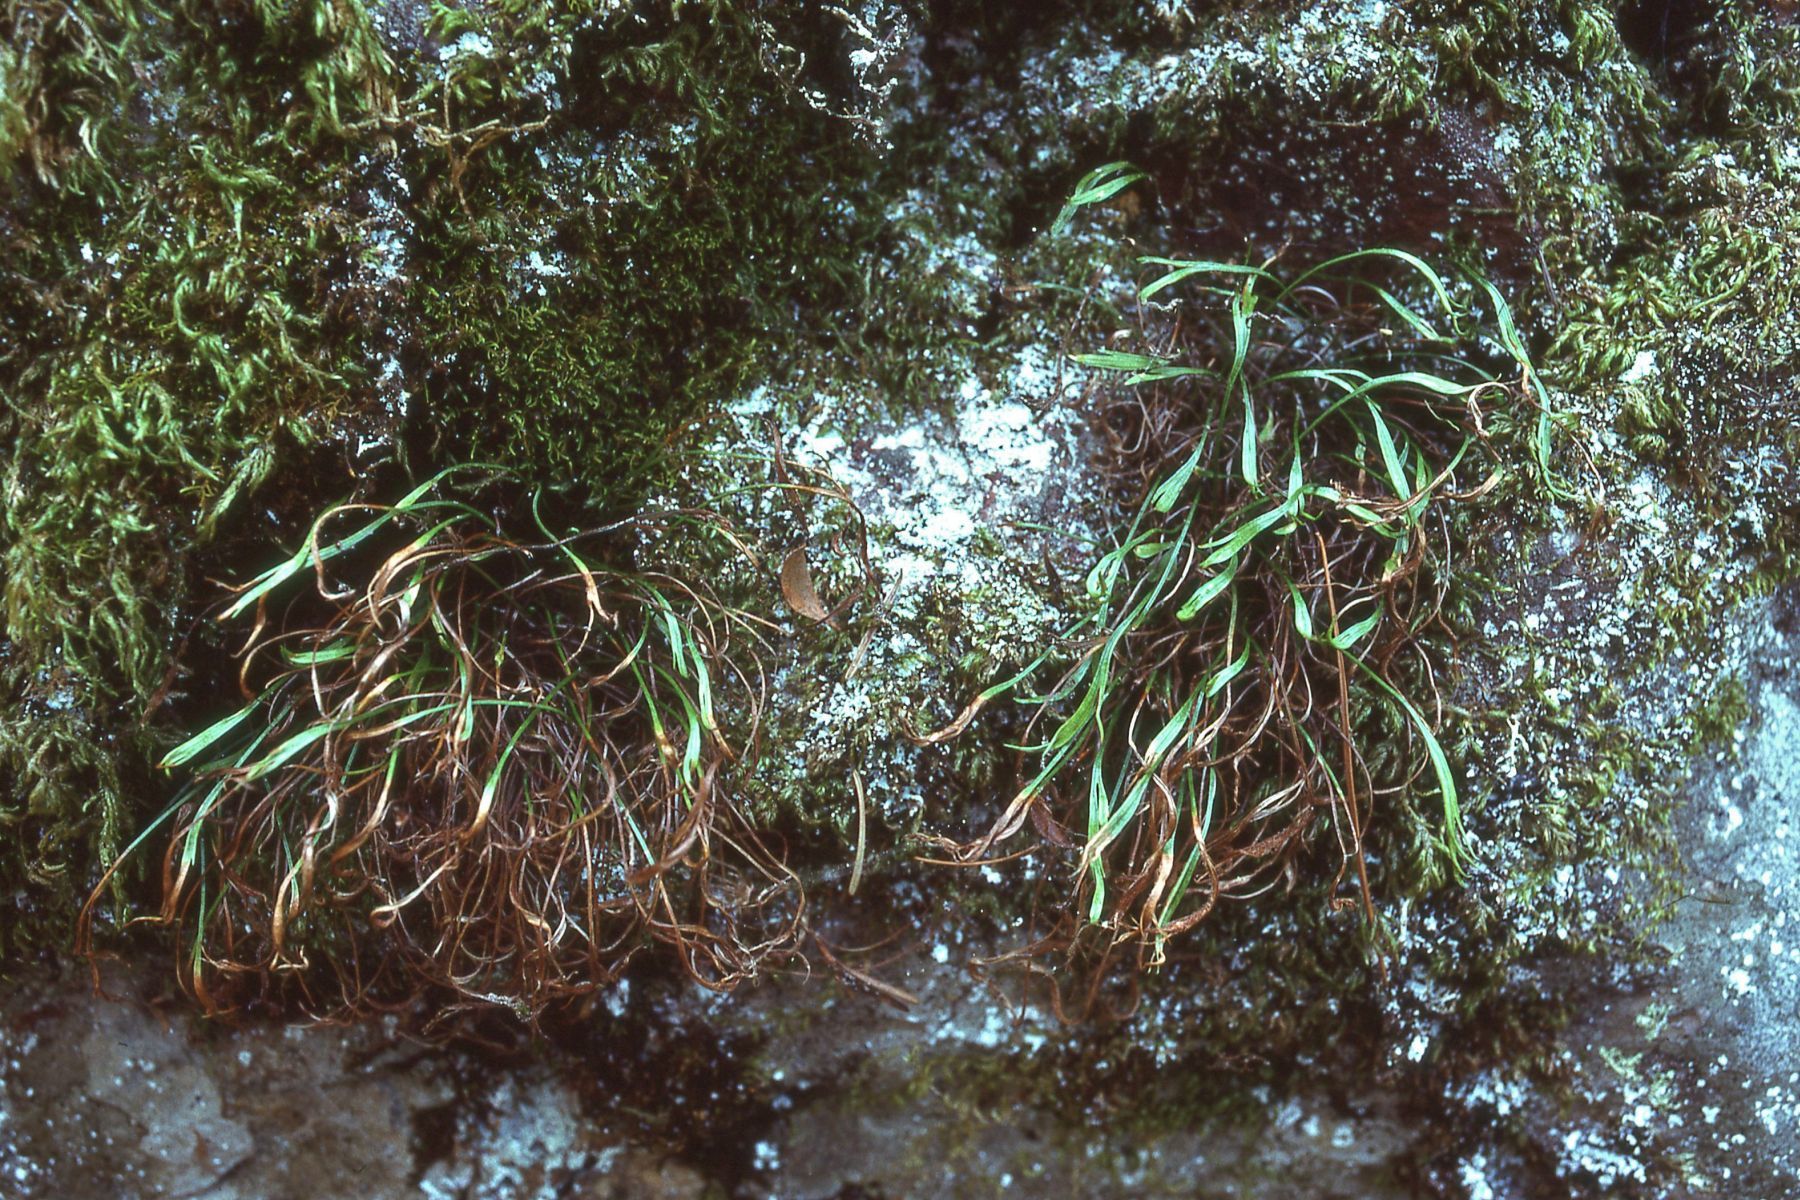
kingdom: Plantae
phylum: Tracheophyta
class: Polypodiopsida
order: Polypodiales
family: Aspleniaceae
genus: Asplenium
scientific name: Asplenium septentrionale
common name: Forked spleenwort
